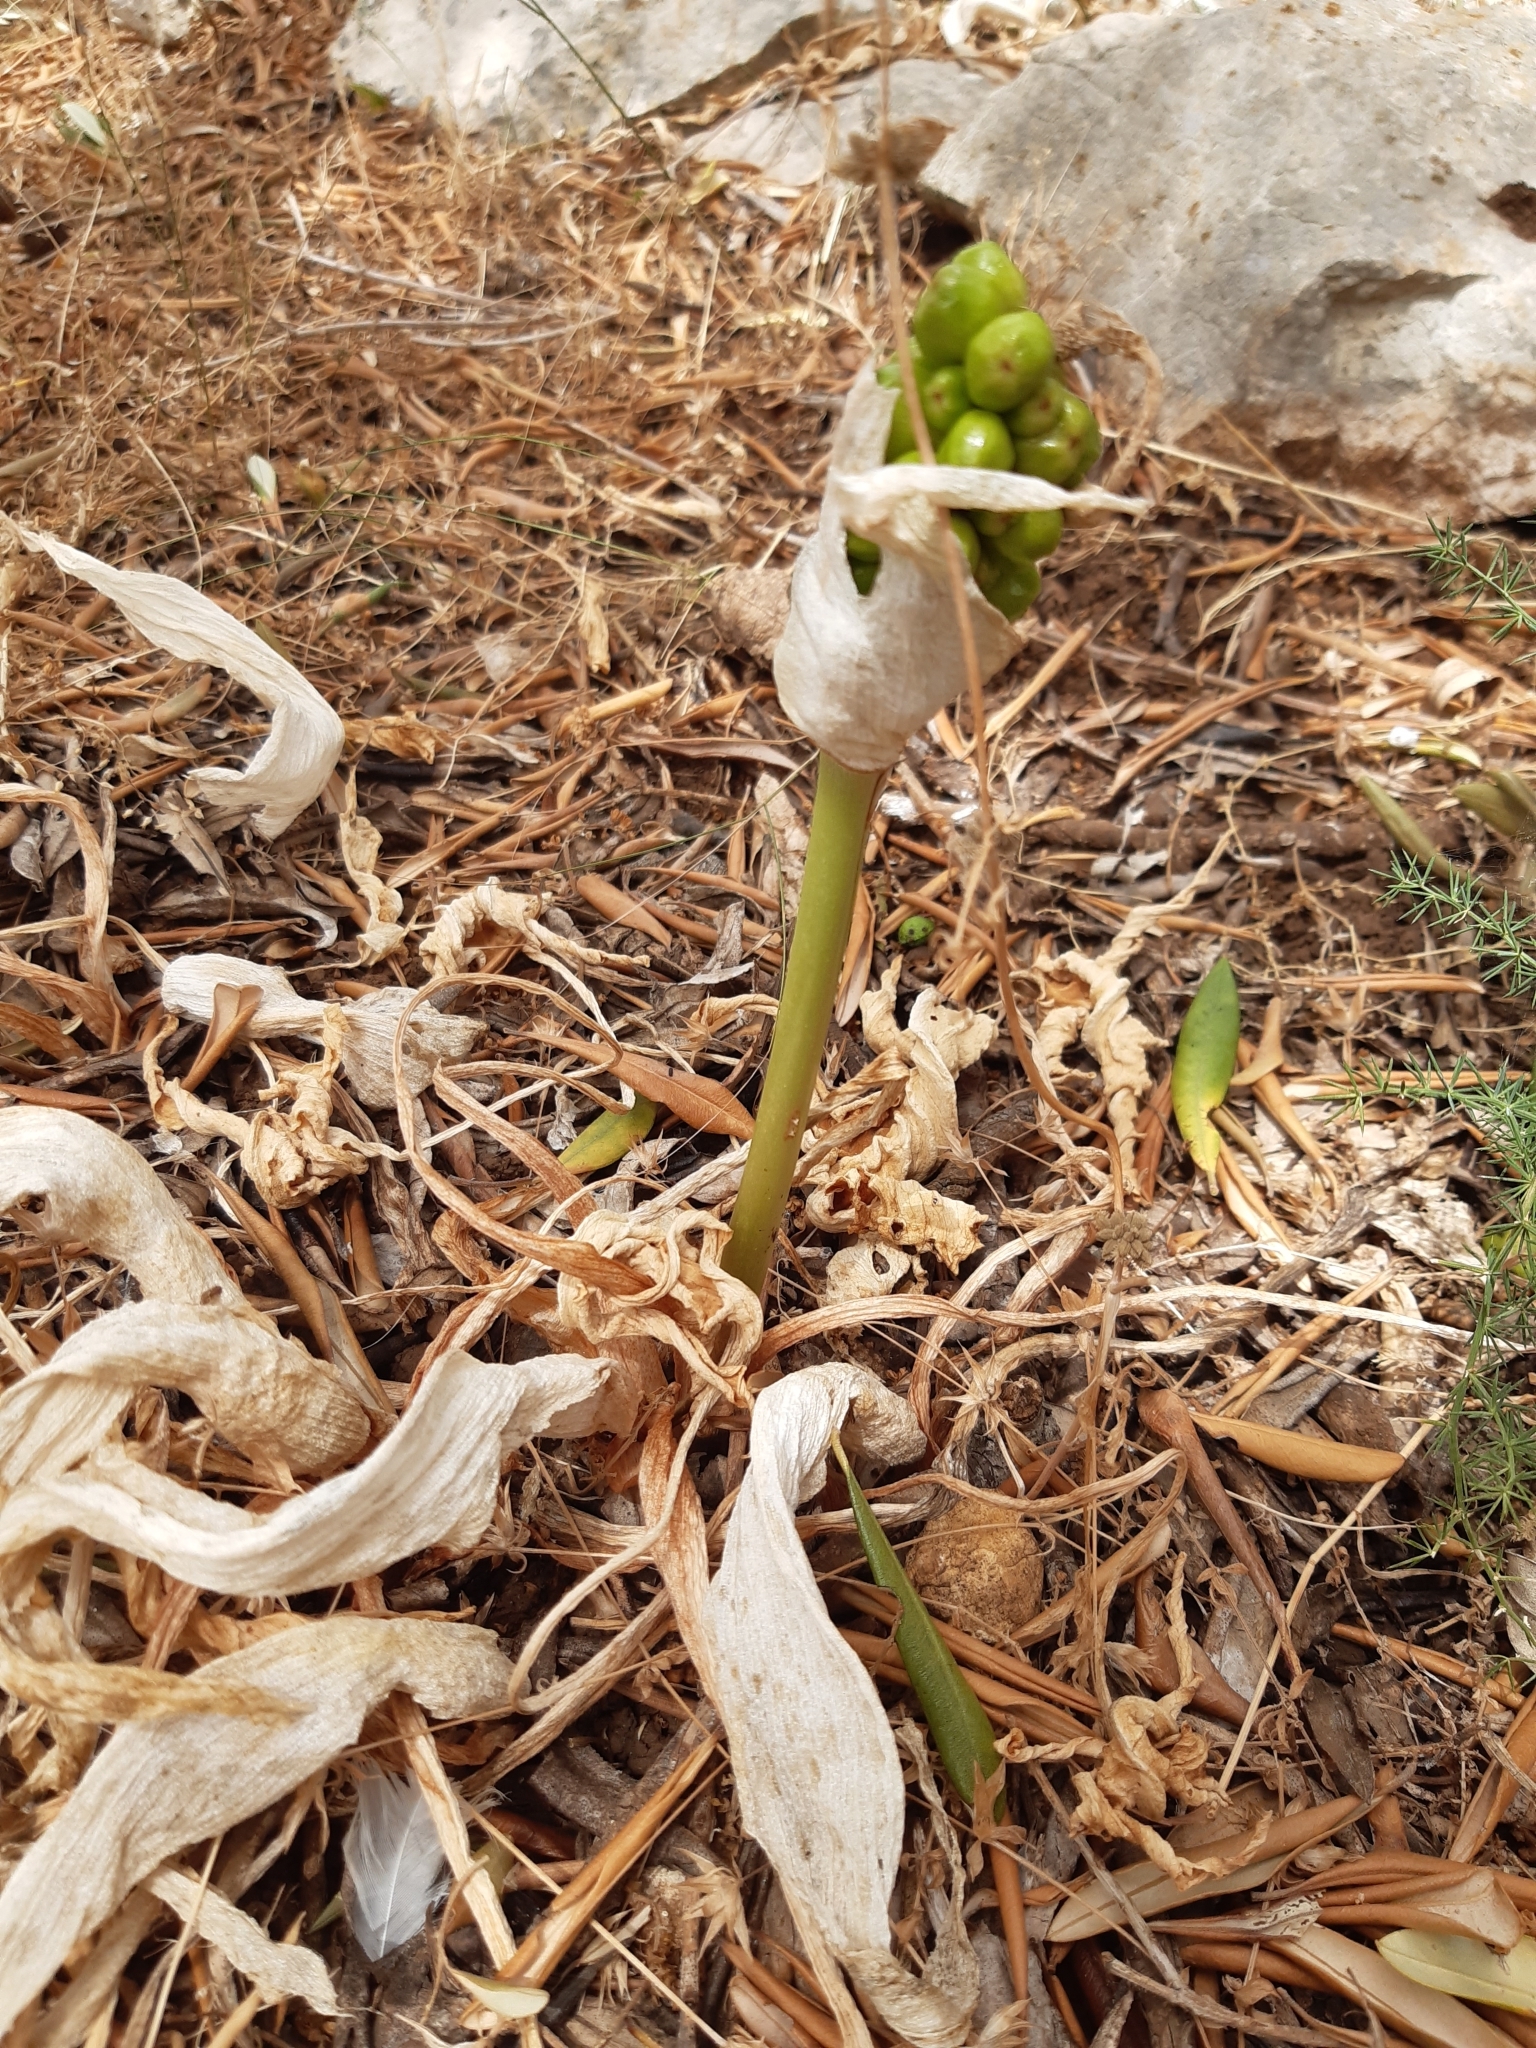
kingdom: Plantae
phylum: Tracheophyta
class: Liliopsida
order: Alismatales
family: Araceae
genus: Arum
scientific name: Arum
